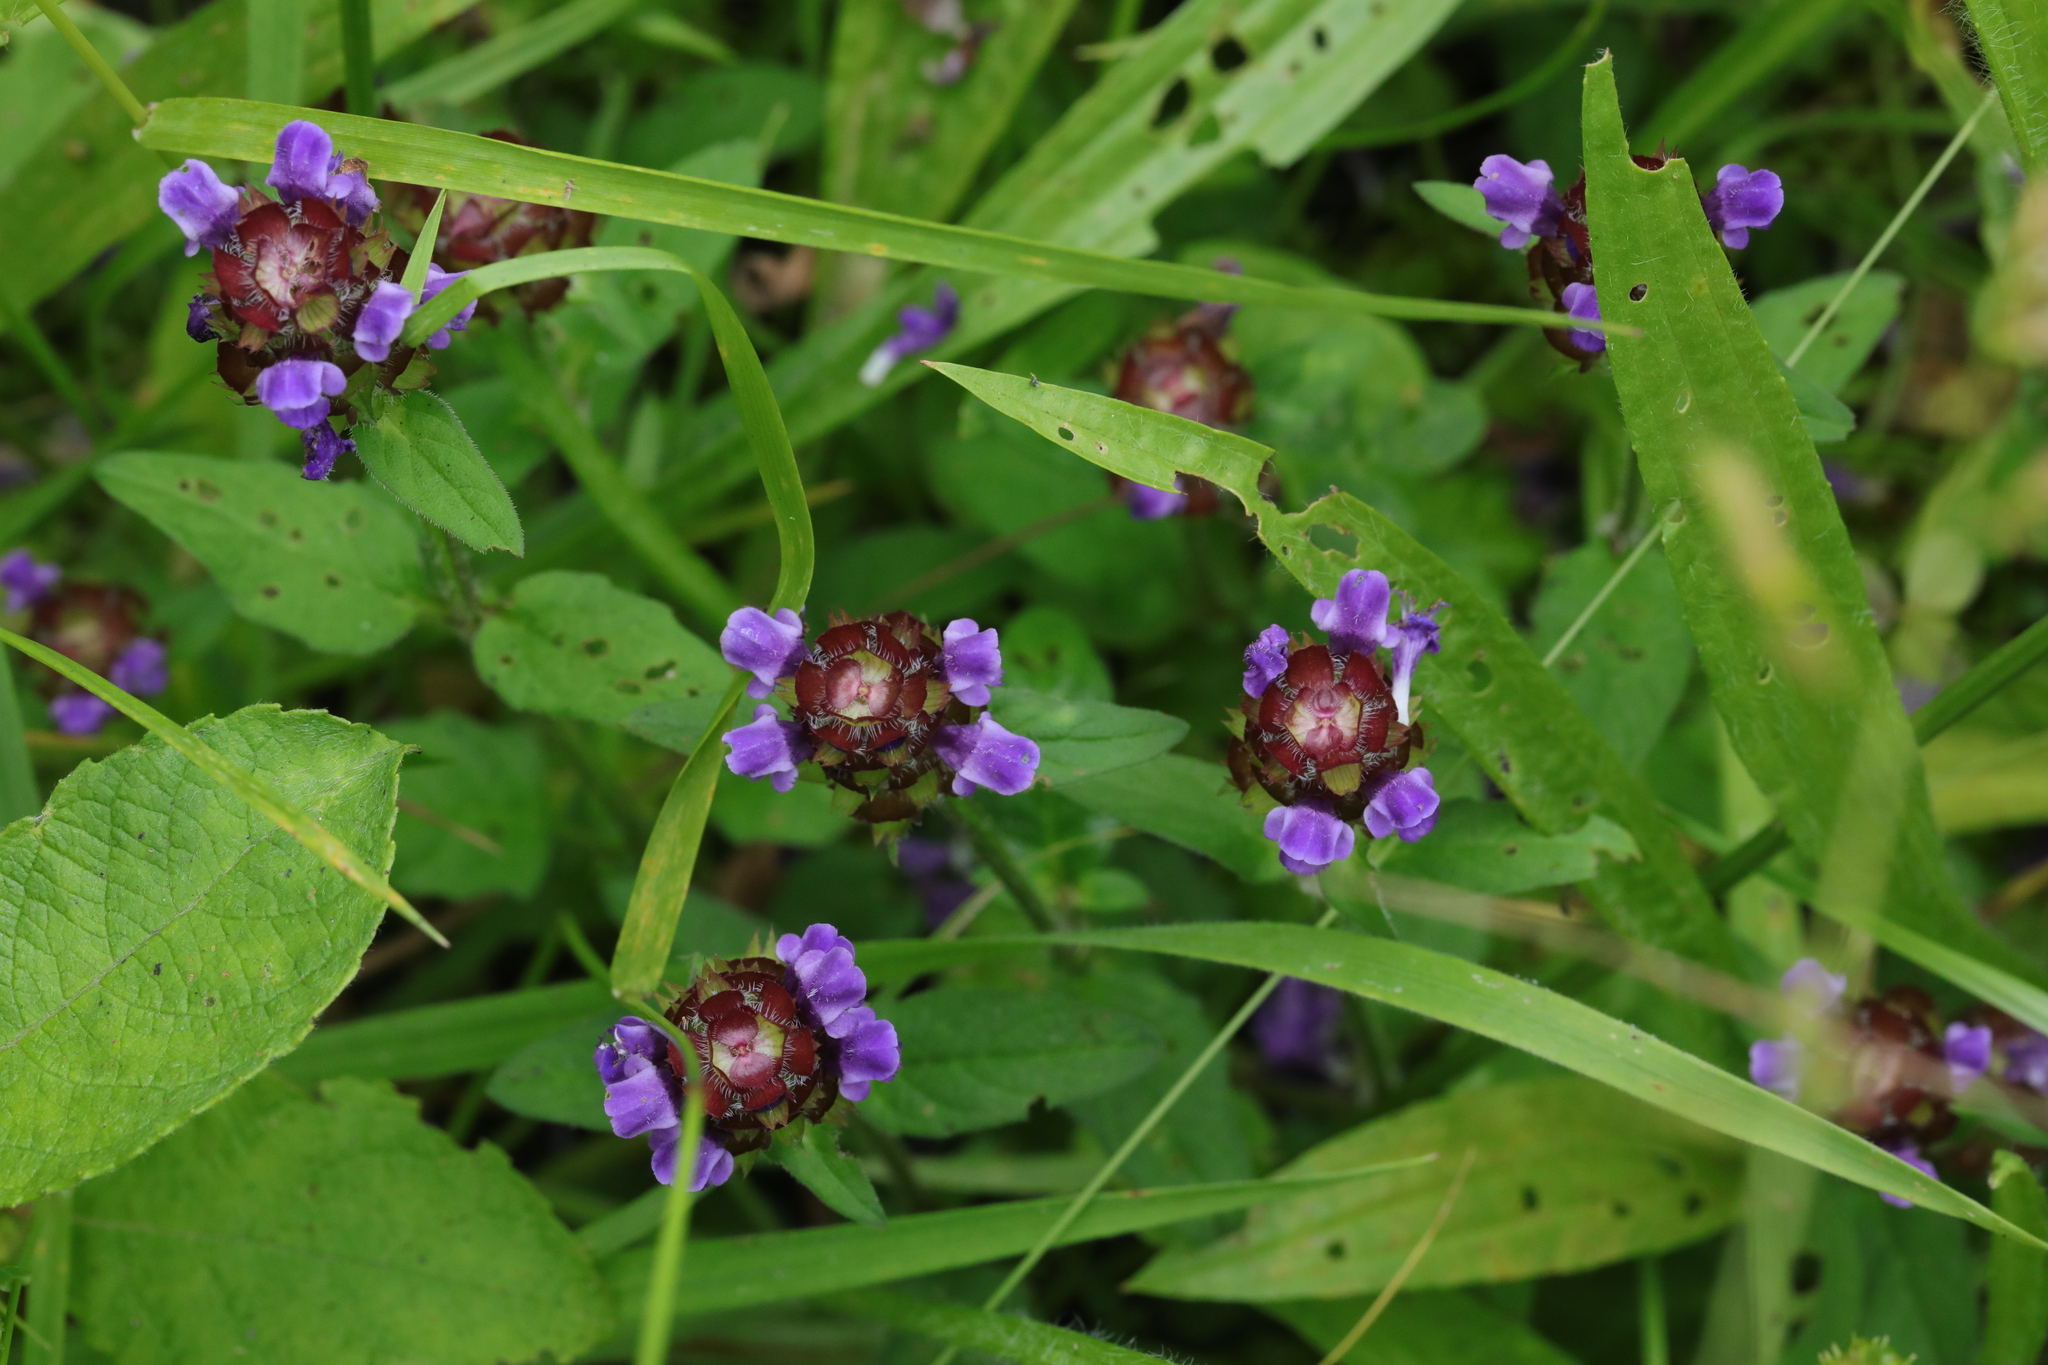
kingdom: Plantae
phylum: Tracheophyta
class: Magnoliopsida
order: Lamiales
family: Lamiaceae
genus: Prunella
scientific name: Prunella vulgaris
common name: Heal-all
